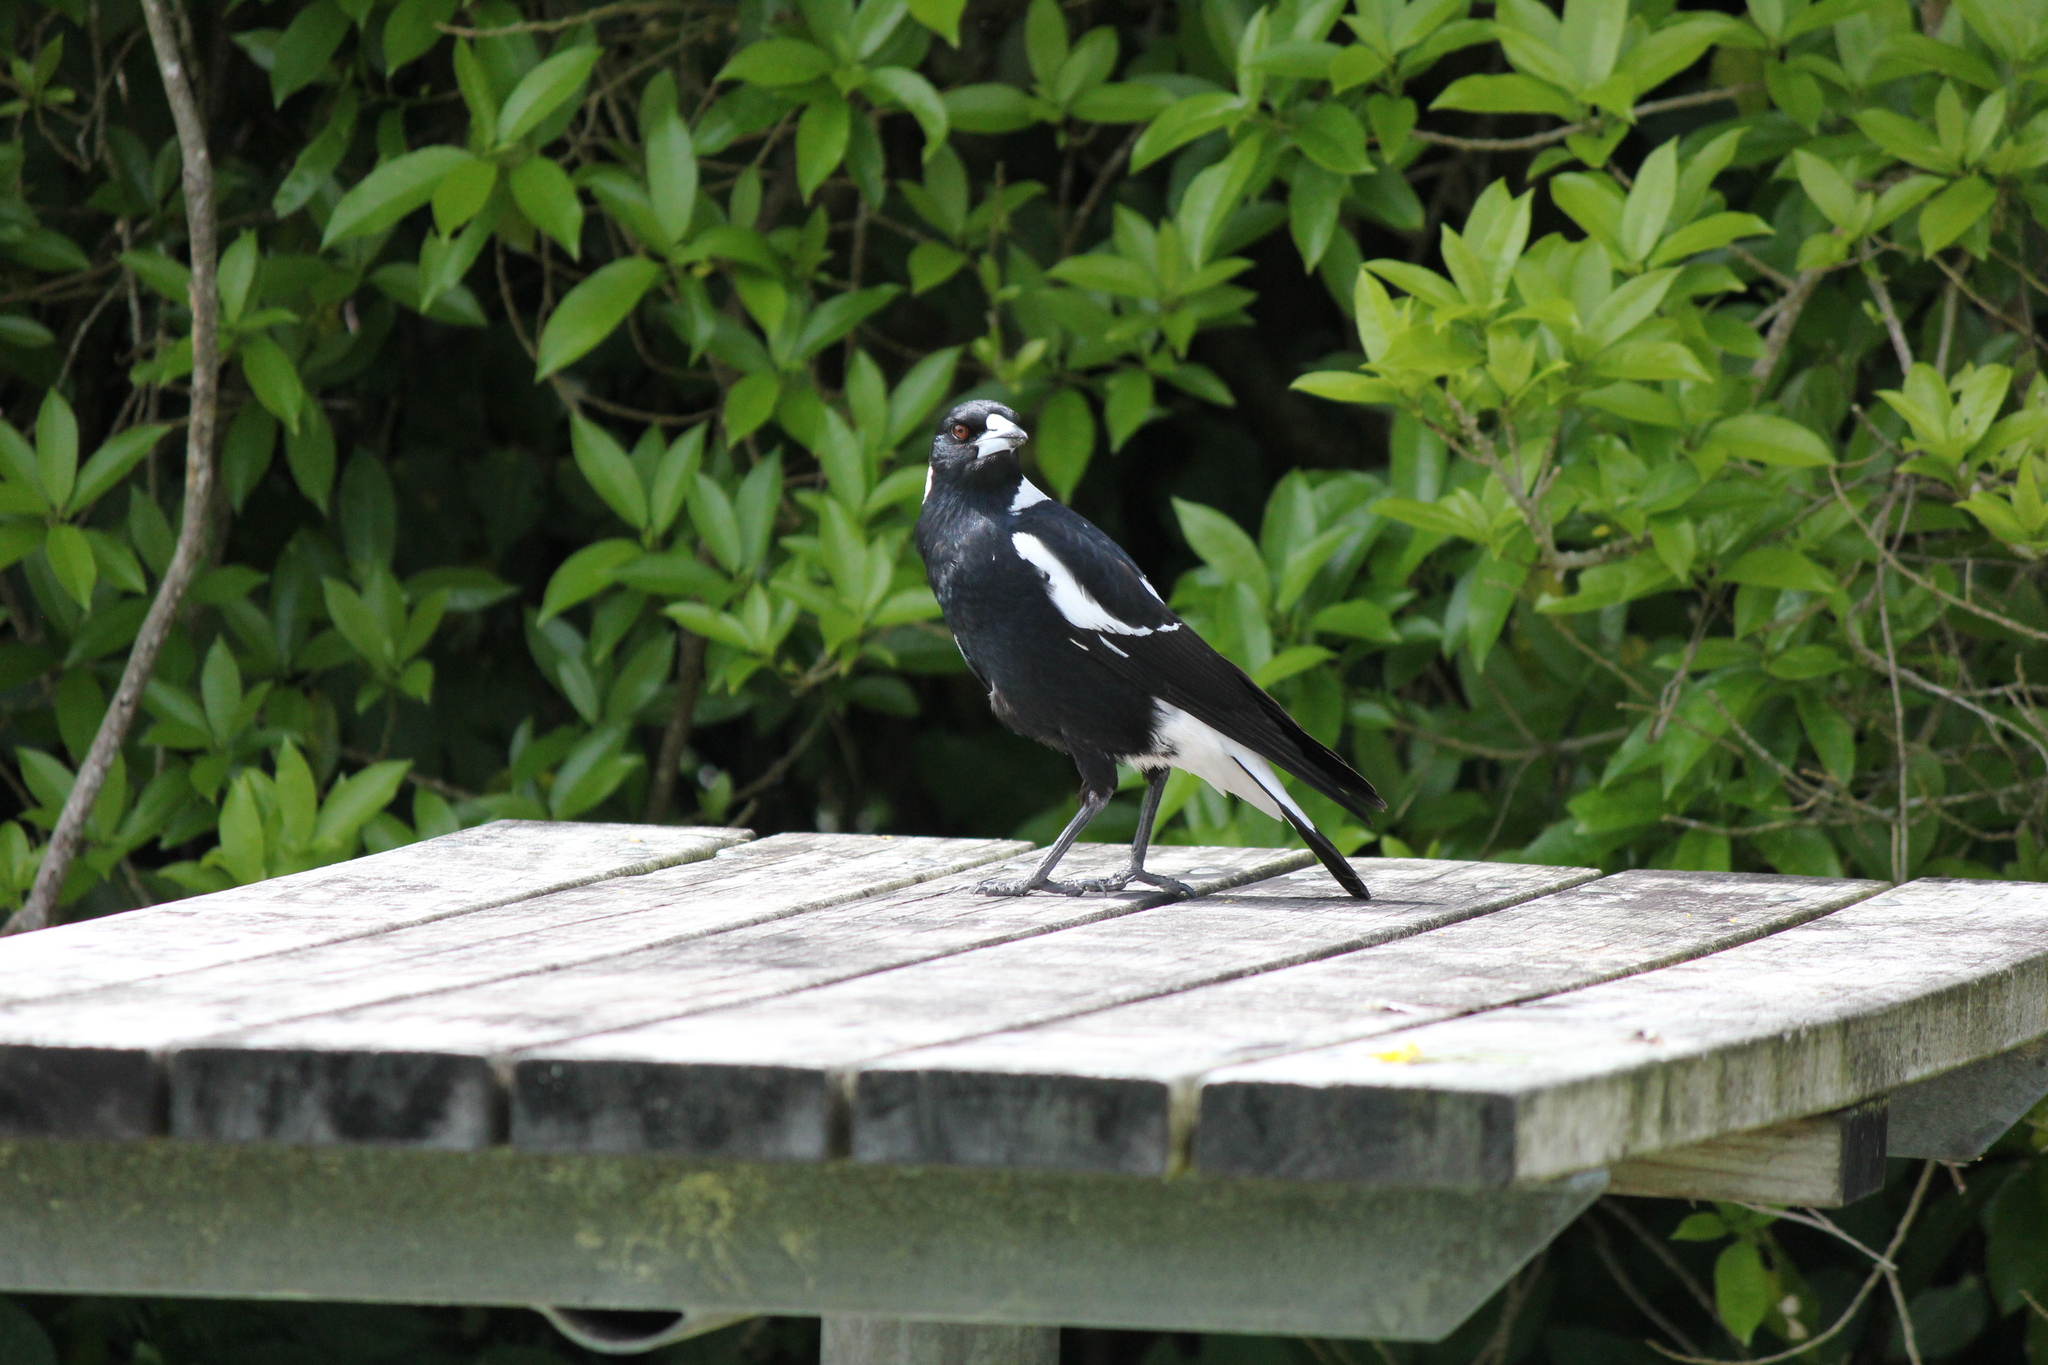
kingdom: Animalia
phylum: Chordata
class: Aves
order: Passeriformes
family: Cracticidae
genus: Gymnorhina
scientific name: Gymnorhina tibicen
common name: Australian magpie
